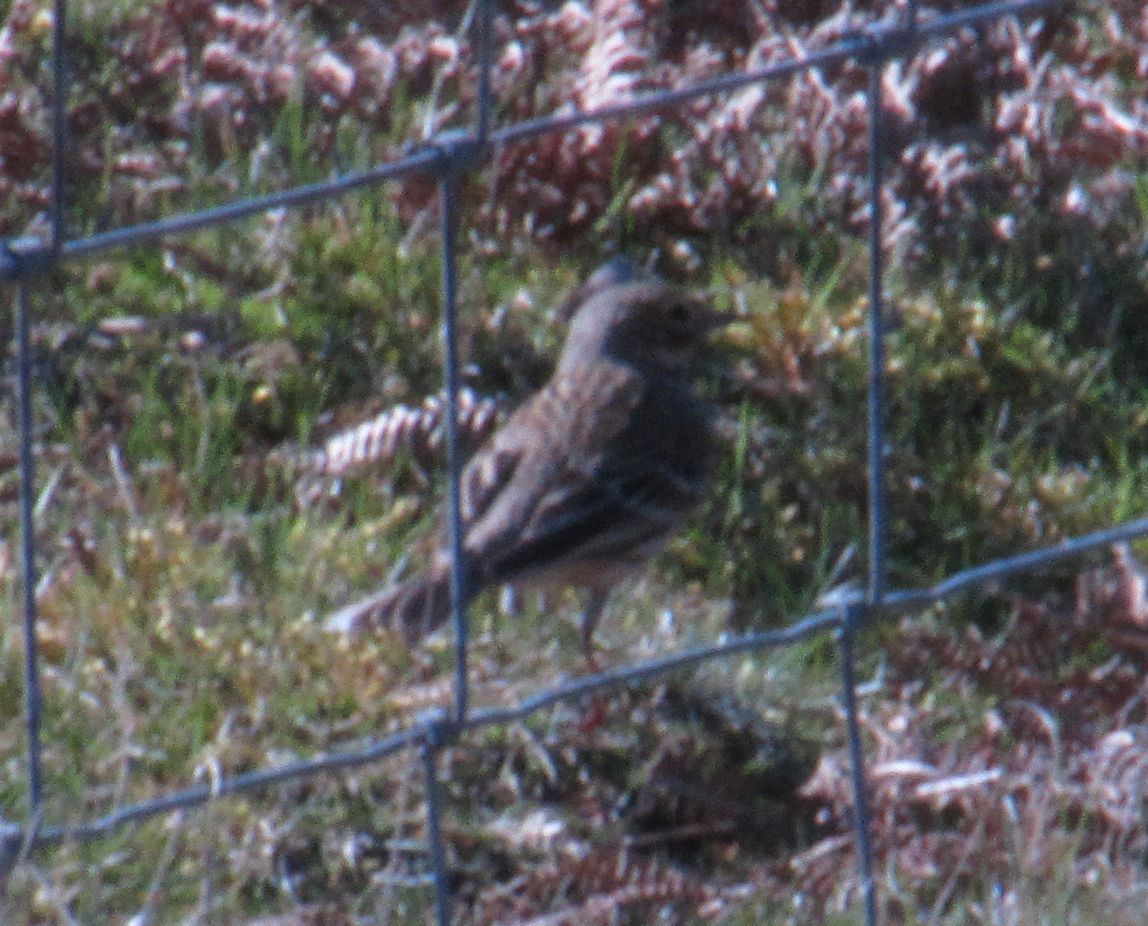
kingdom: Animalia
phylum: Chordata
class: Aves
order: Passeriformes
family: Motacillidae
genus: Anthus
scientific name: Anthus pratensis
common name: Meadow pipit
